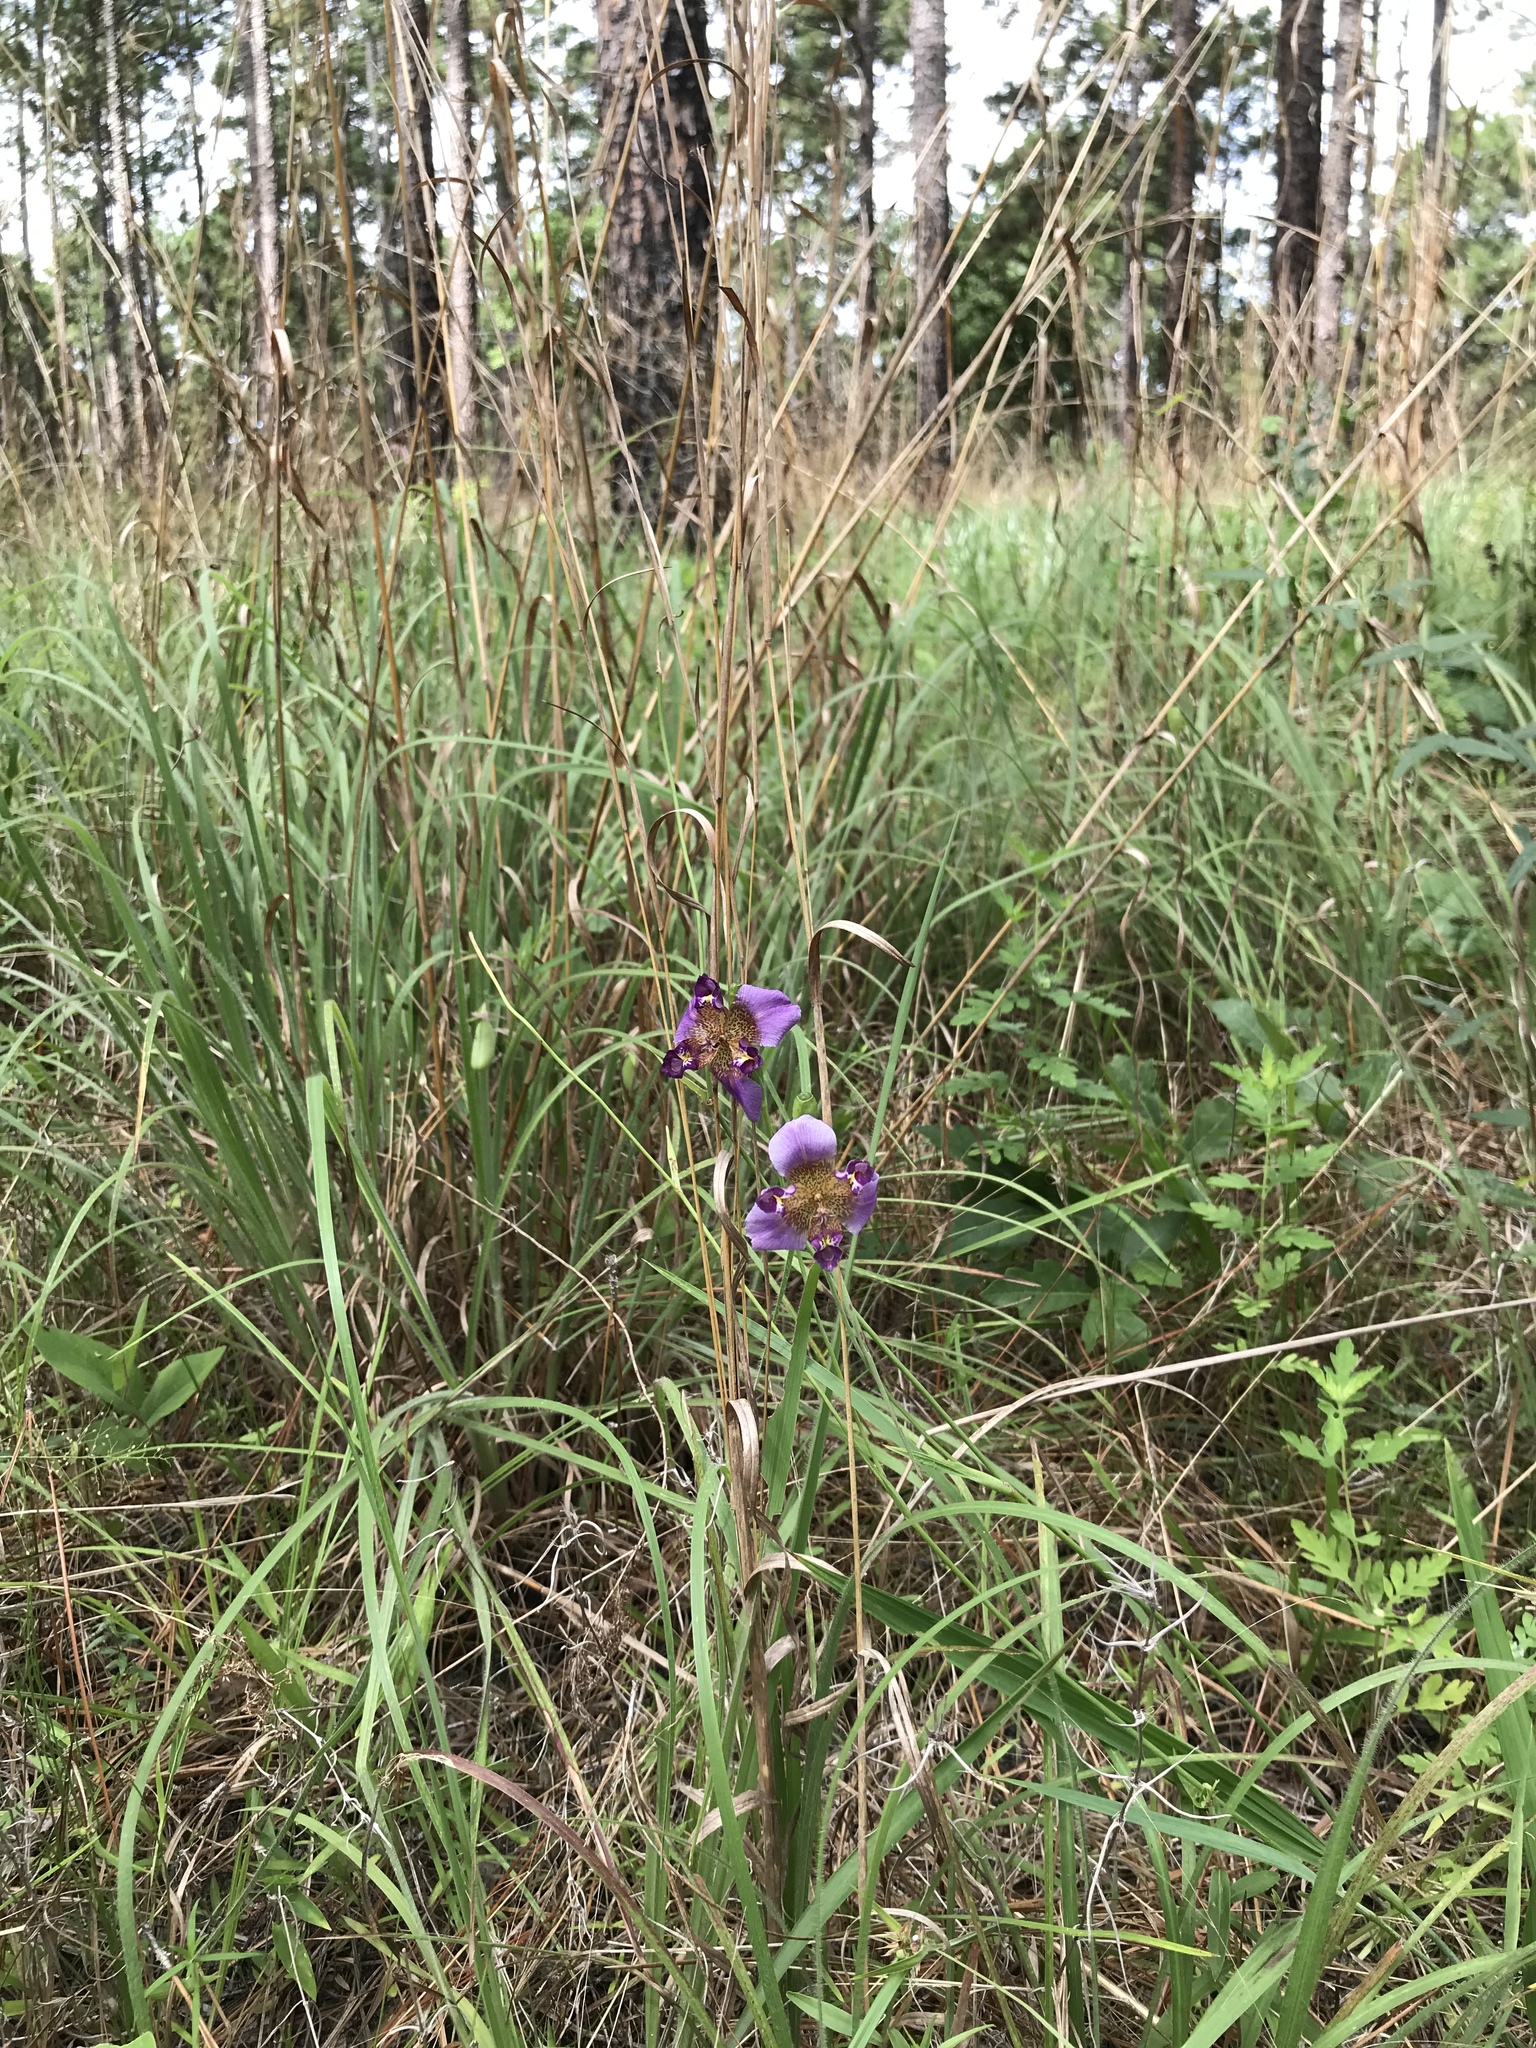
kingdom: Plantae
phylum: Tracheophyta
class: Liliopsida
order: Asparagales
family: Iridaceae
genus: Alophia
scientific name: Alophia drummondii
